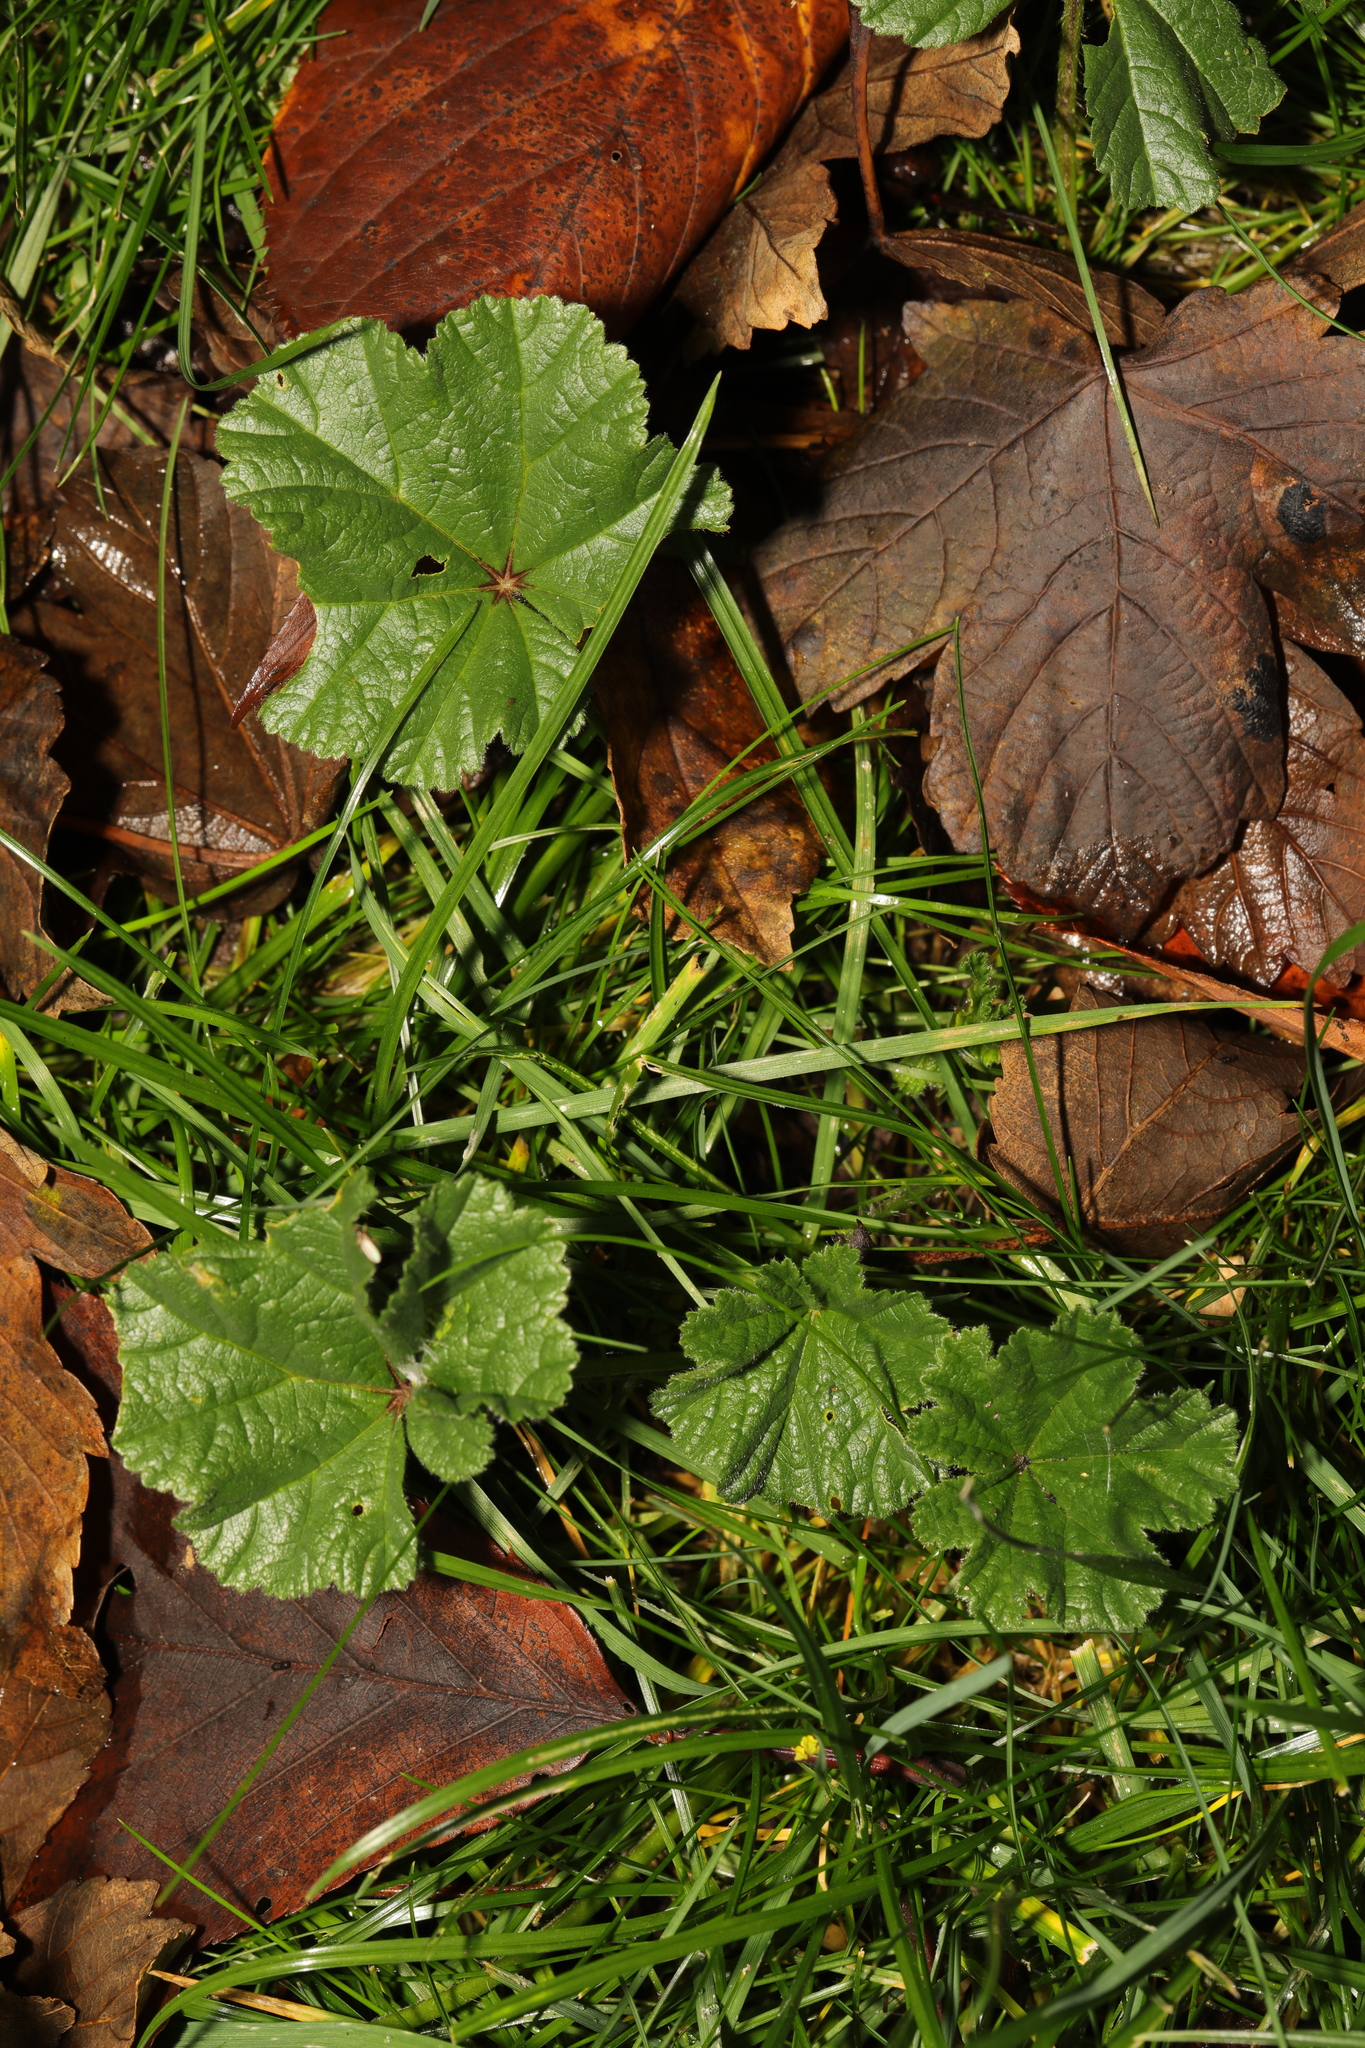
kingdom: Plantae
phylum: Tracheophyta
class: Magnoliopsida
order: Malvales
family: Malvaceae
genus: Malva
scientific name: Malva sylvestris
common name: Common mallow
